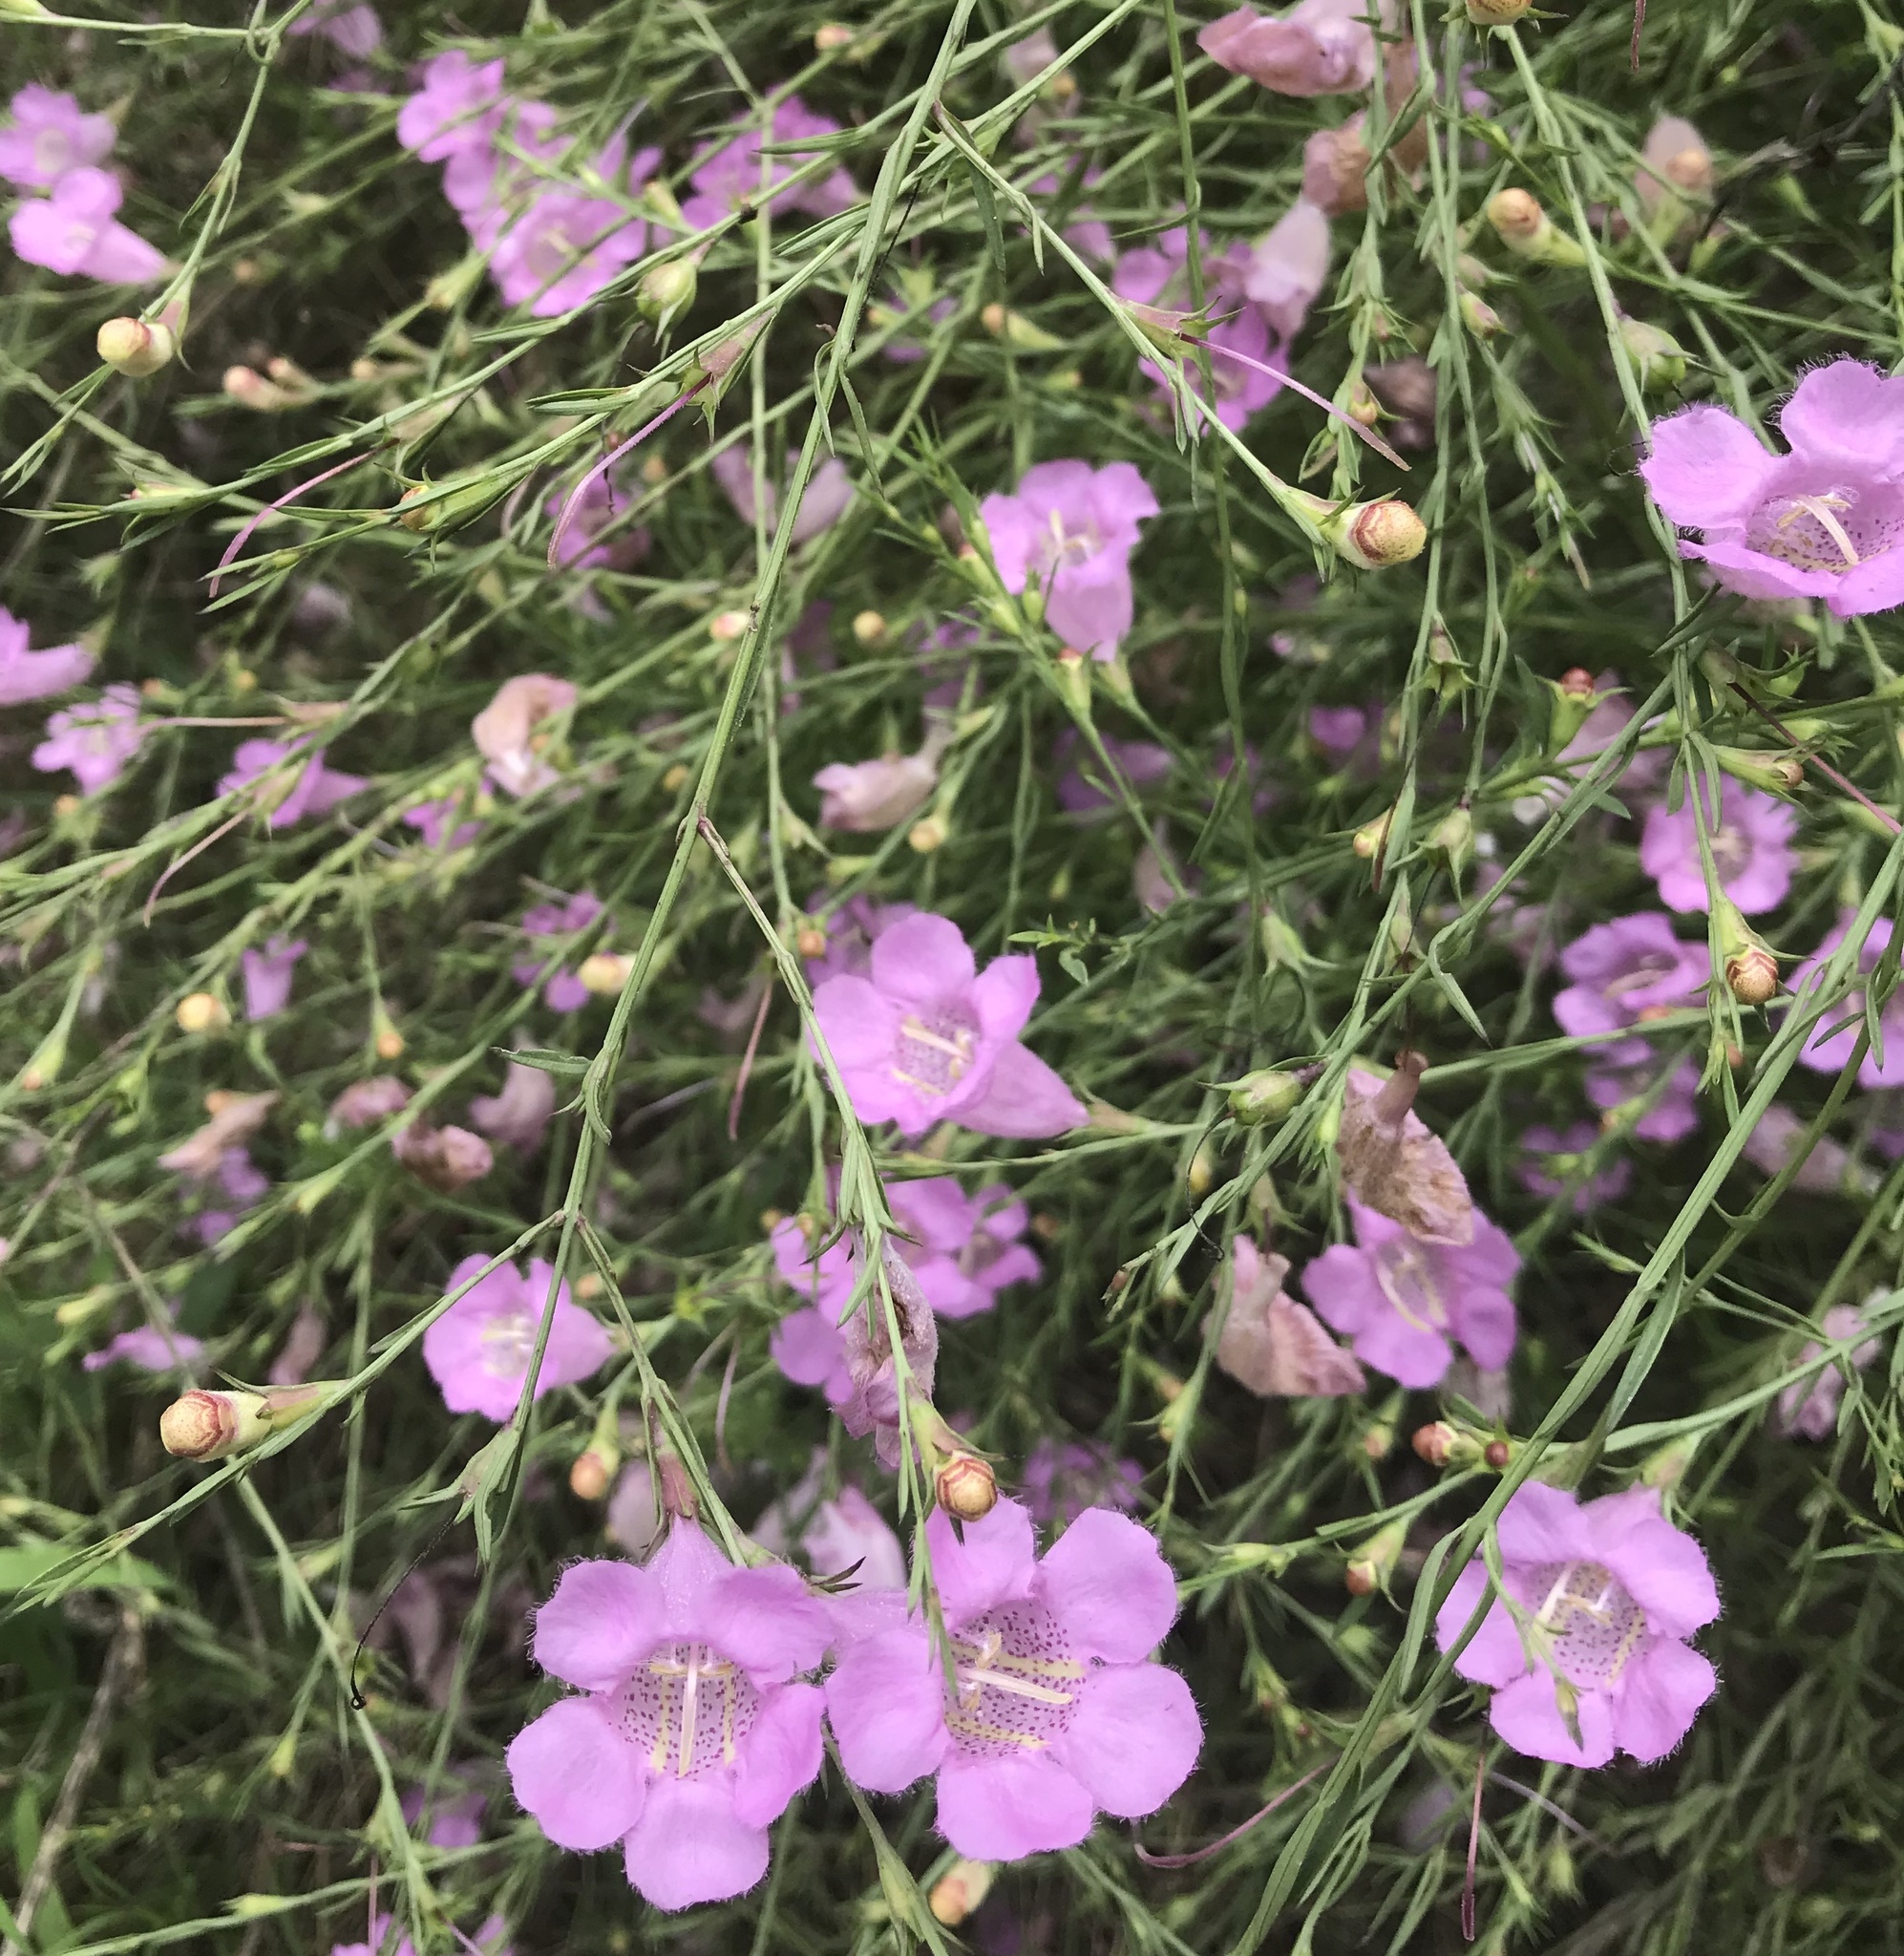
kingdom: Plantae
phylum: Tracheophyta
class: Magnoliopsida
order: Lamiales
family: Orobanchaceae
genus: Agalinis
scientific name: Agalinis heterophylla
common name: Prairie agalinis
